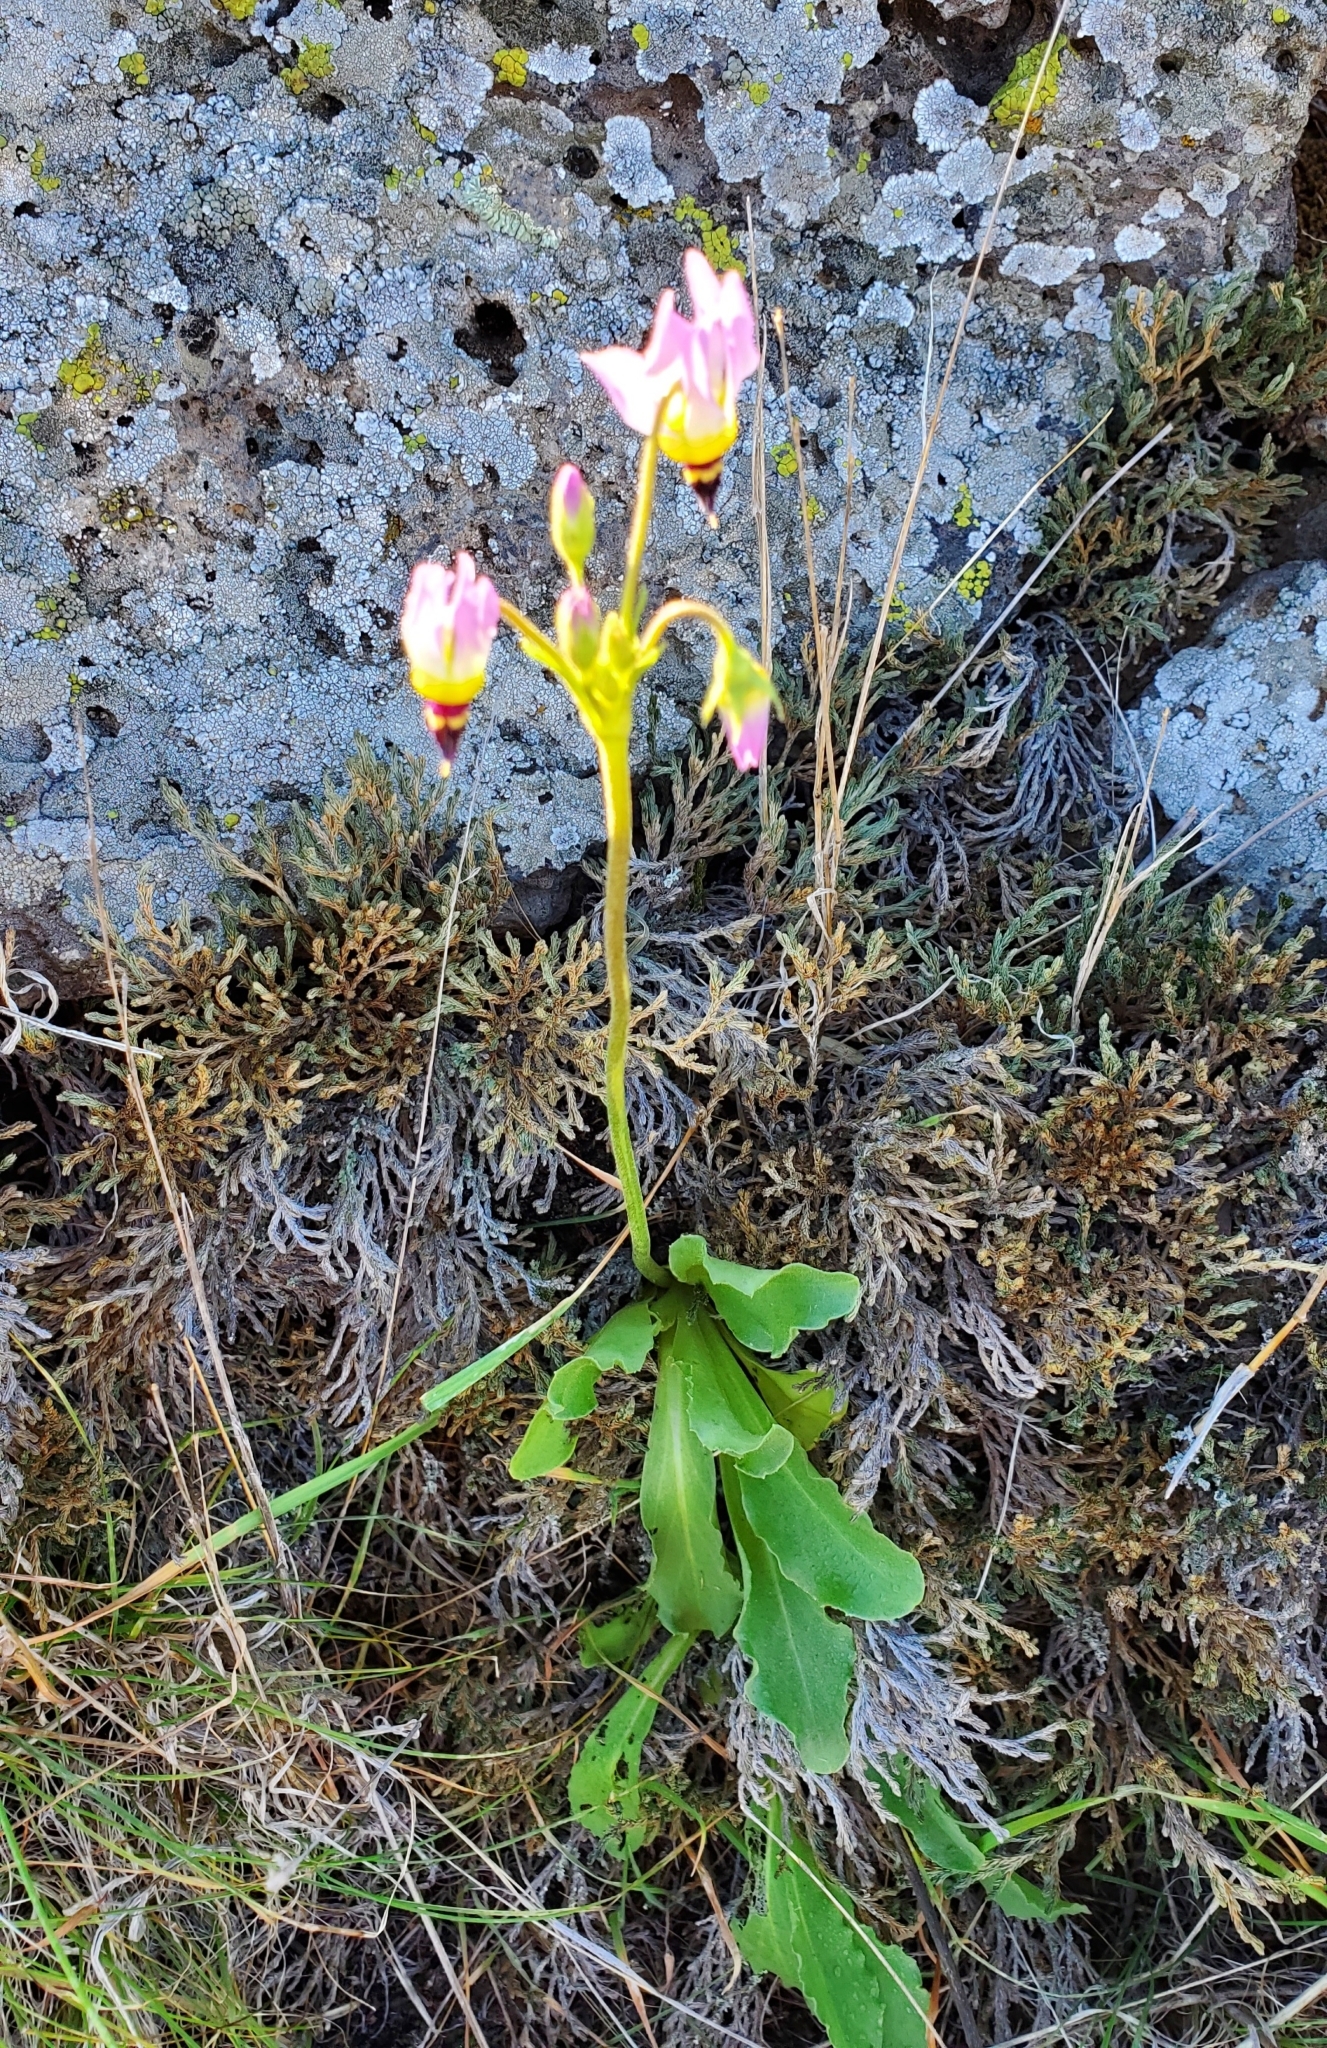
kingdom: Plantae
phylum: Tracheophyta
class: Magnoliopsida
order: Ericales
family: Primulaceae
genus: Dodecatheon
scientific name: Dodecatheon clevelandii
